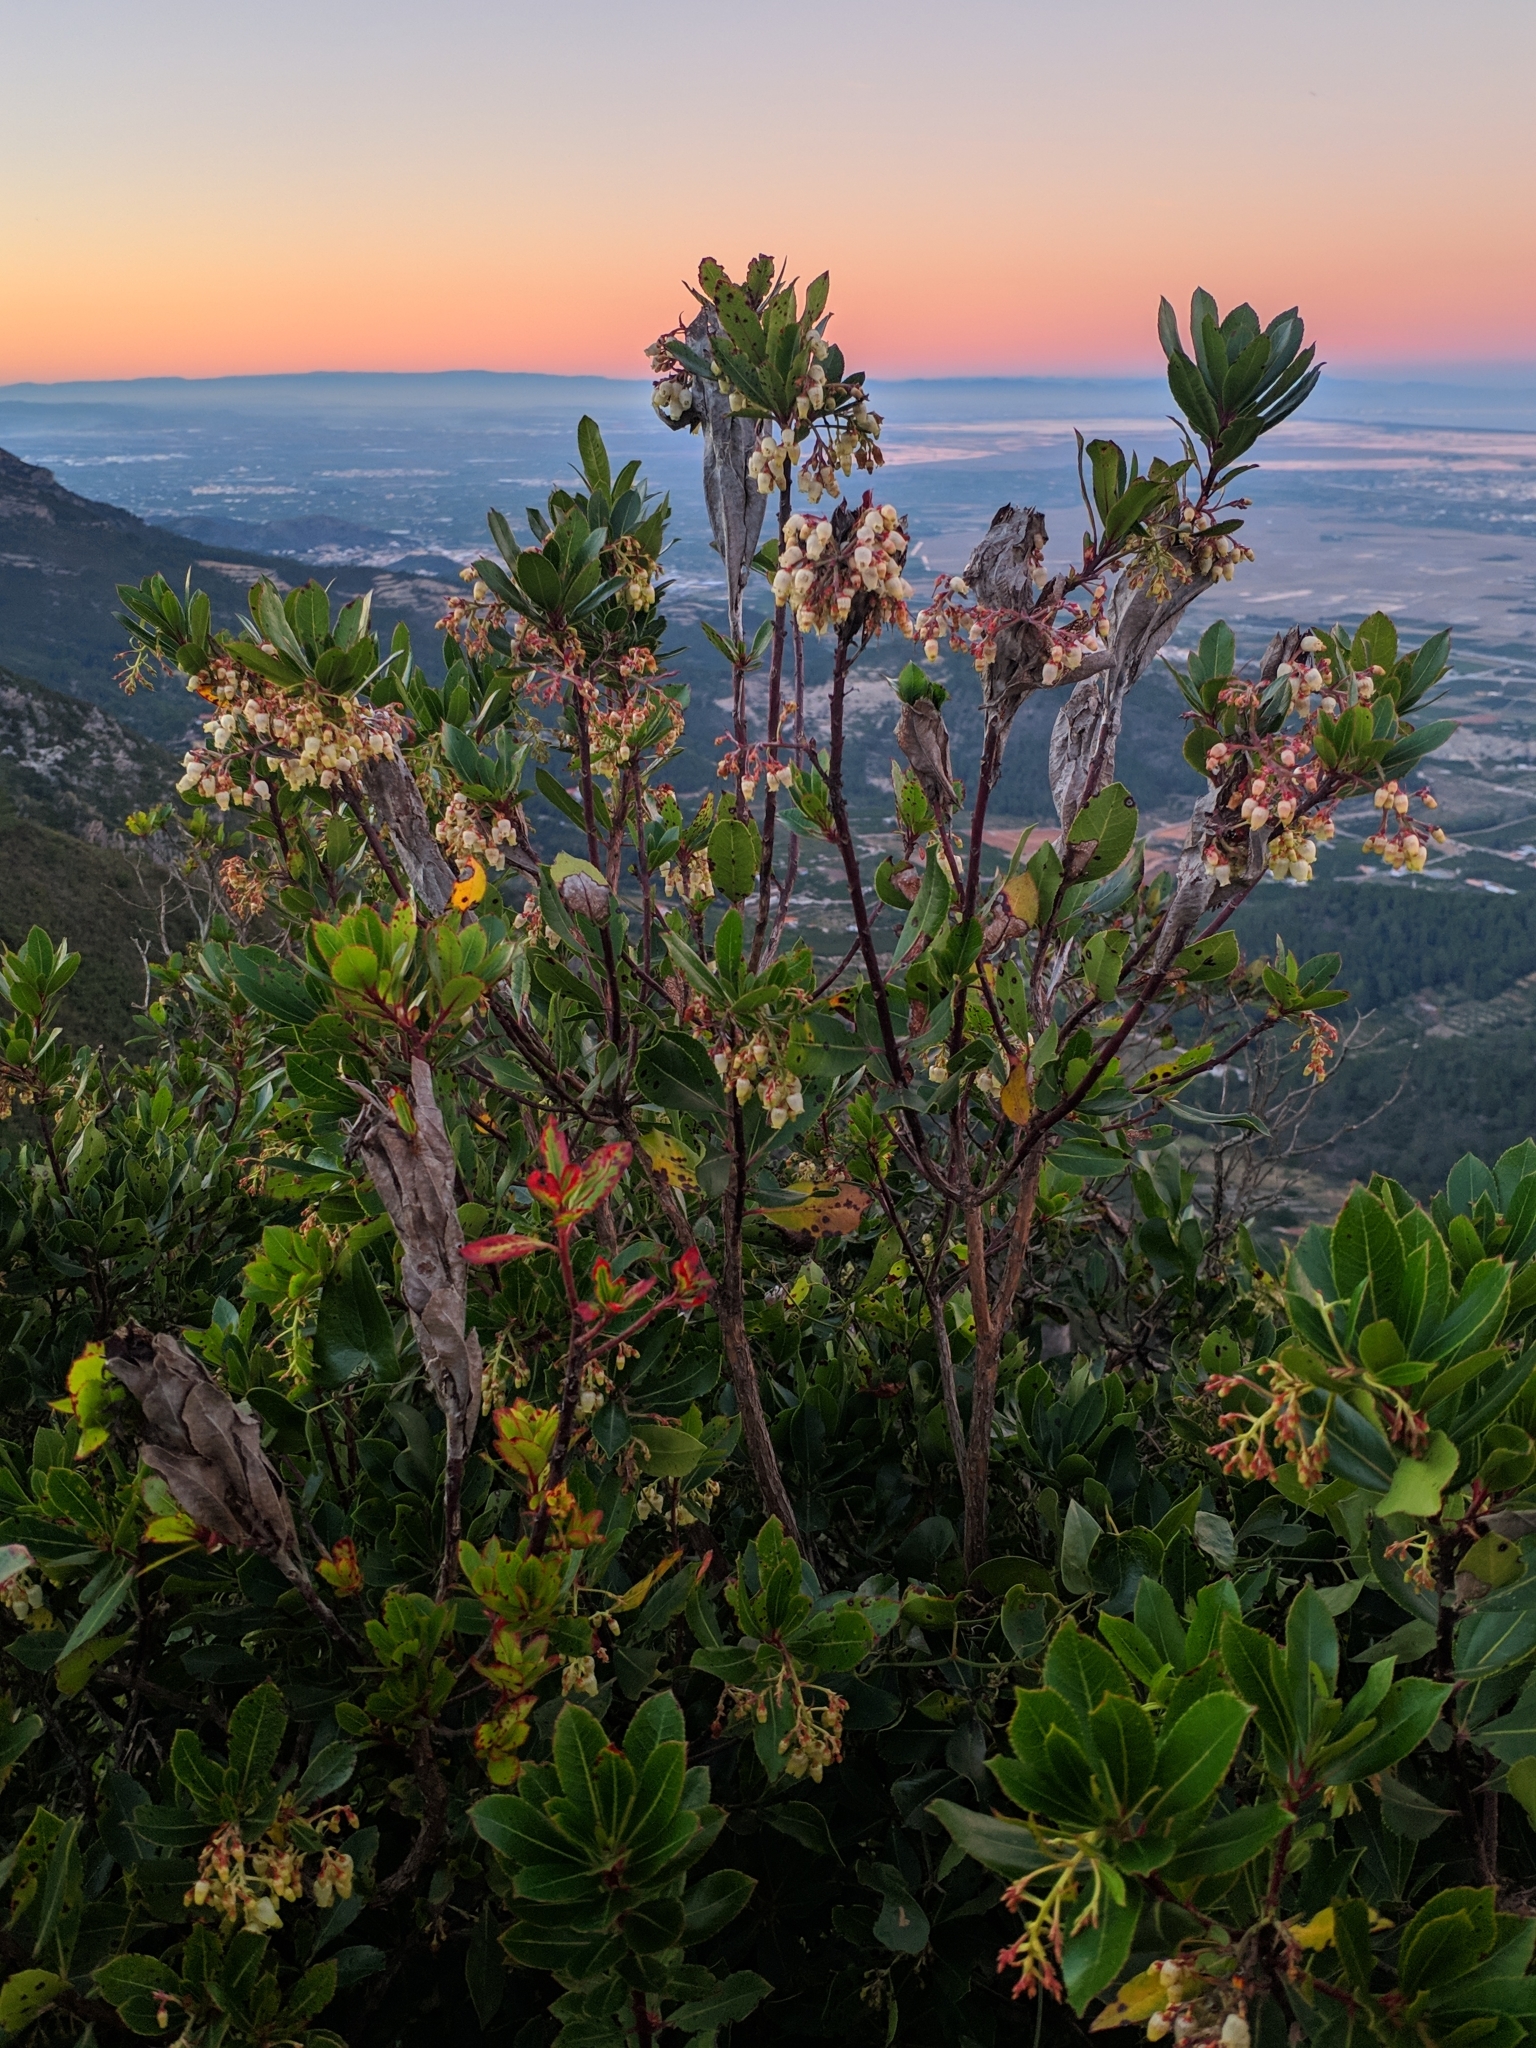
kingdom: Plantae
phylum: Tracheophyta
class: Magnoliopsida
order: Ericales
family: Ericaceae
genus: Arbutus
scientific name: Arbutus unedo
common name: Strawberry-tree
